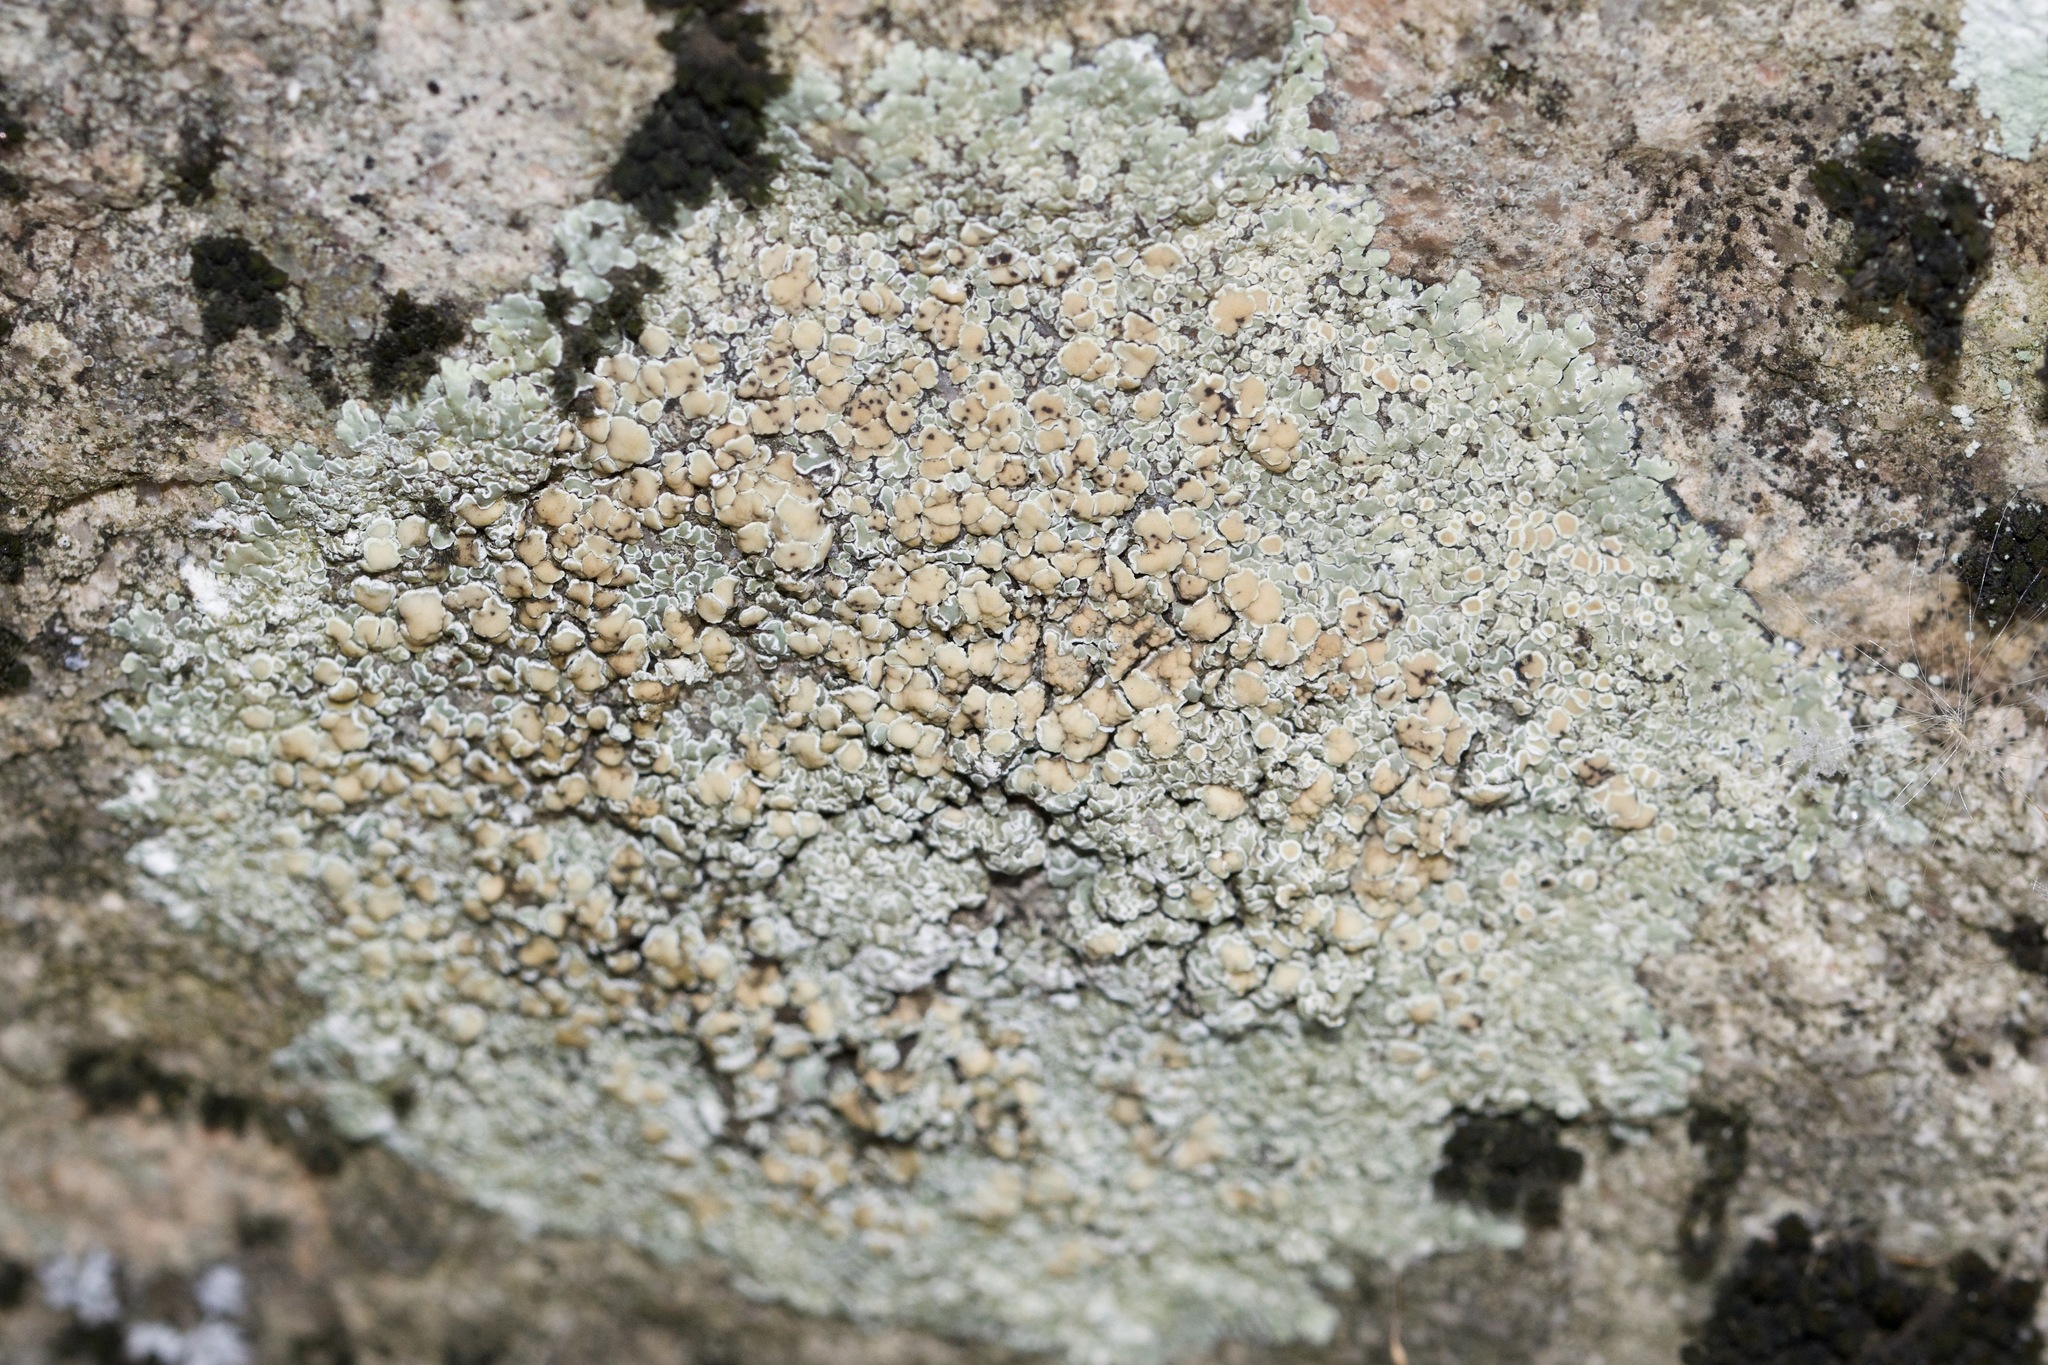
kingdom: Fungi
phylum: Ascomycota
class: Lecanoromycetes
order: Lecanorales
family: Lecanoraceae
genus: Protoparmeliopsis
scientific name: Protoparmeliopsis muralis
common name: Stonewall rim lichen
